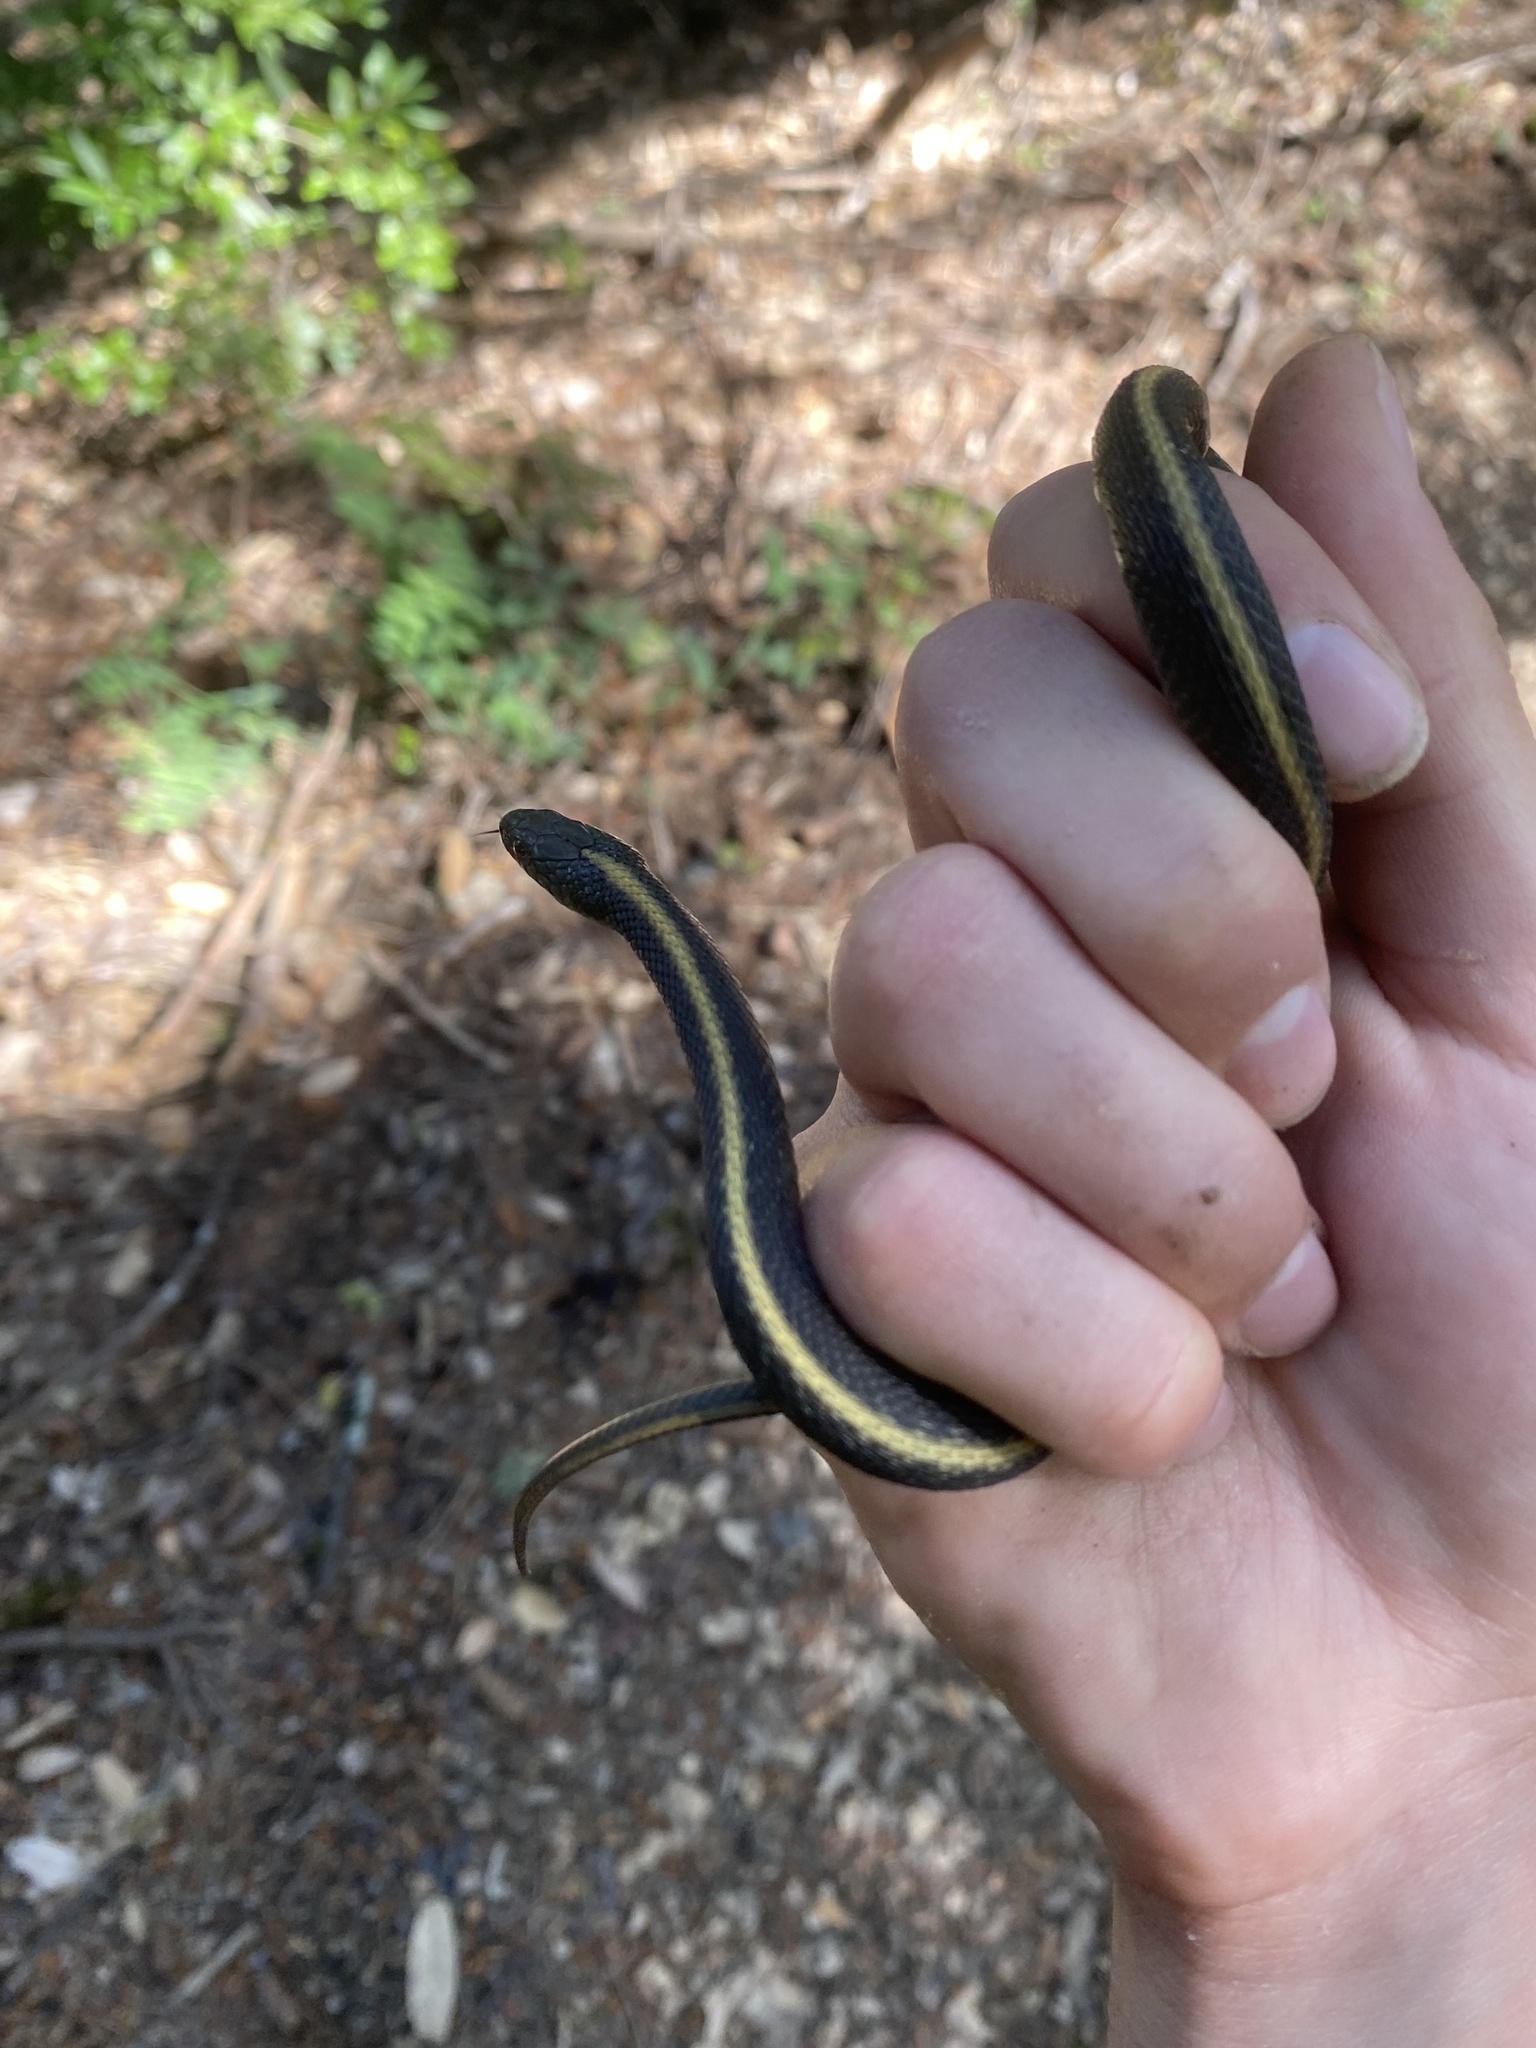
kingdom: Animalia
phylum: Chordata
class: Squamata
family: Colubridae
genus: Thamnophis
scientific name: Thamnophis atratus
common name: Pacific coast aquatic garter snake
